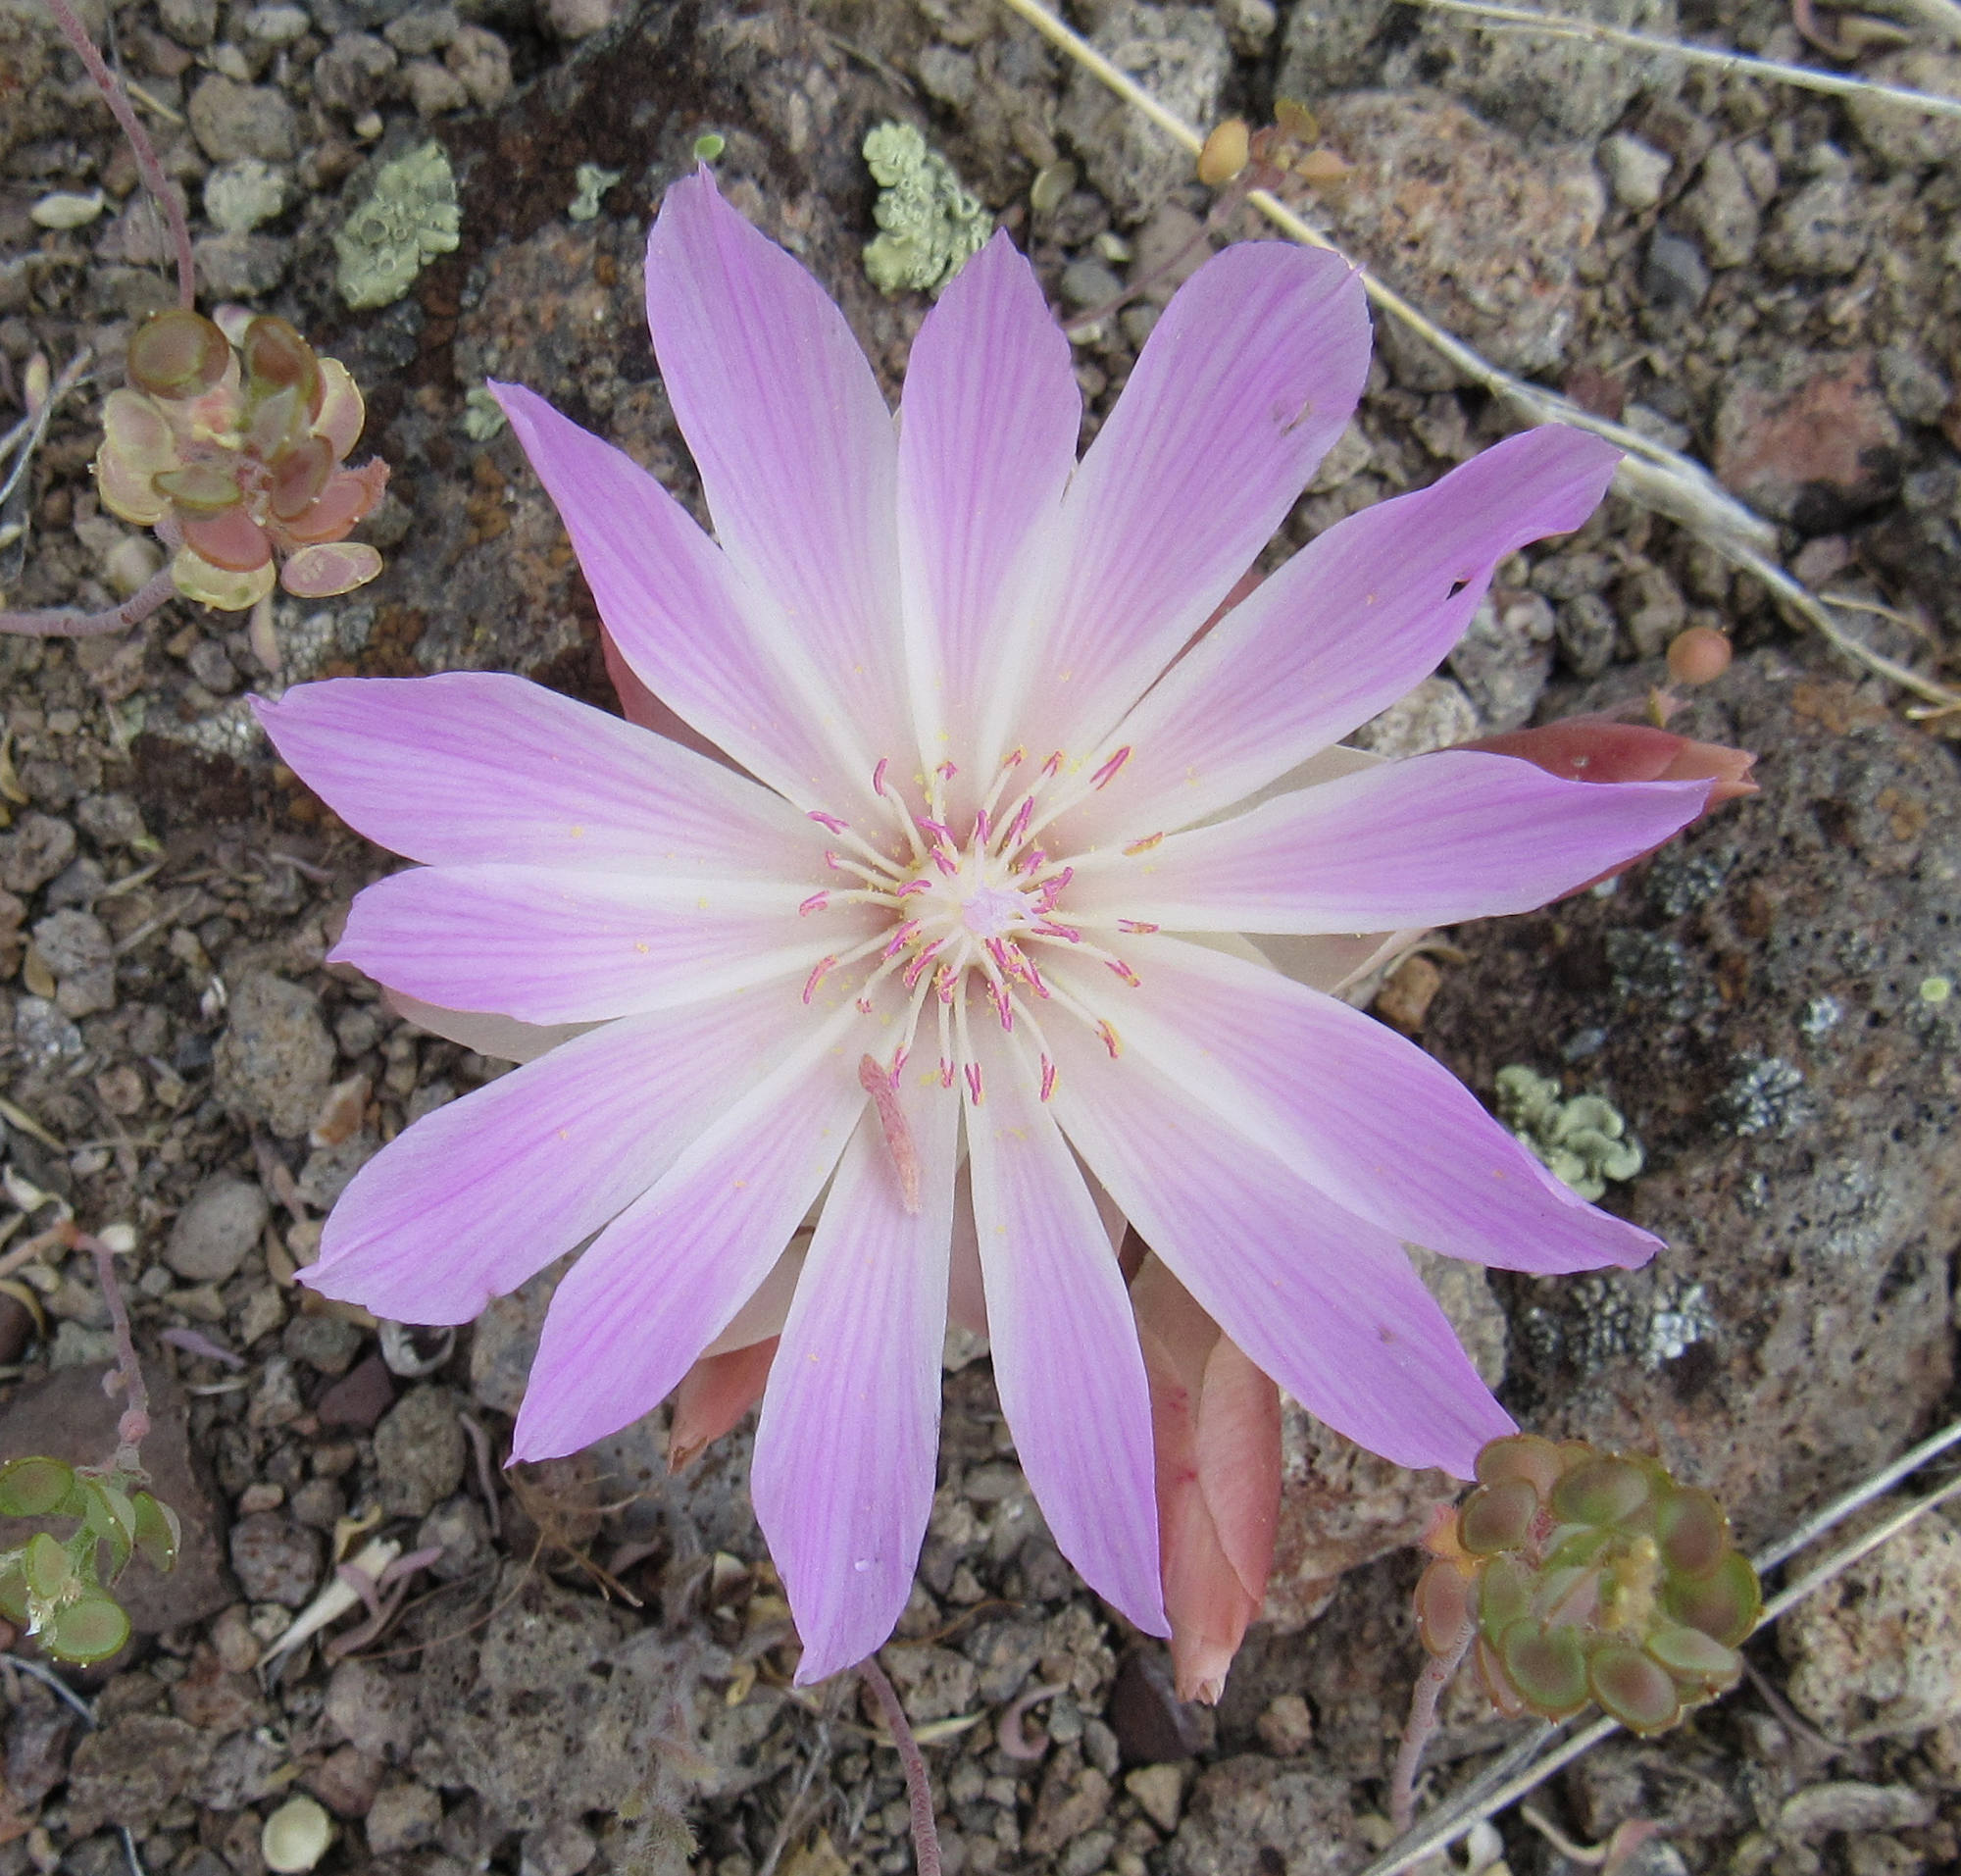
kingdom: Plantae
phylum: Tracheophyta
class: Magnoliopsida
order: Caryophyllales
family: Montiaceae
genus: Lewisia
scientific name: Lewisia rediviva
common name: Bitter-root
